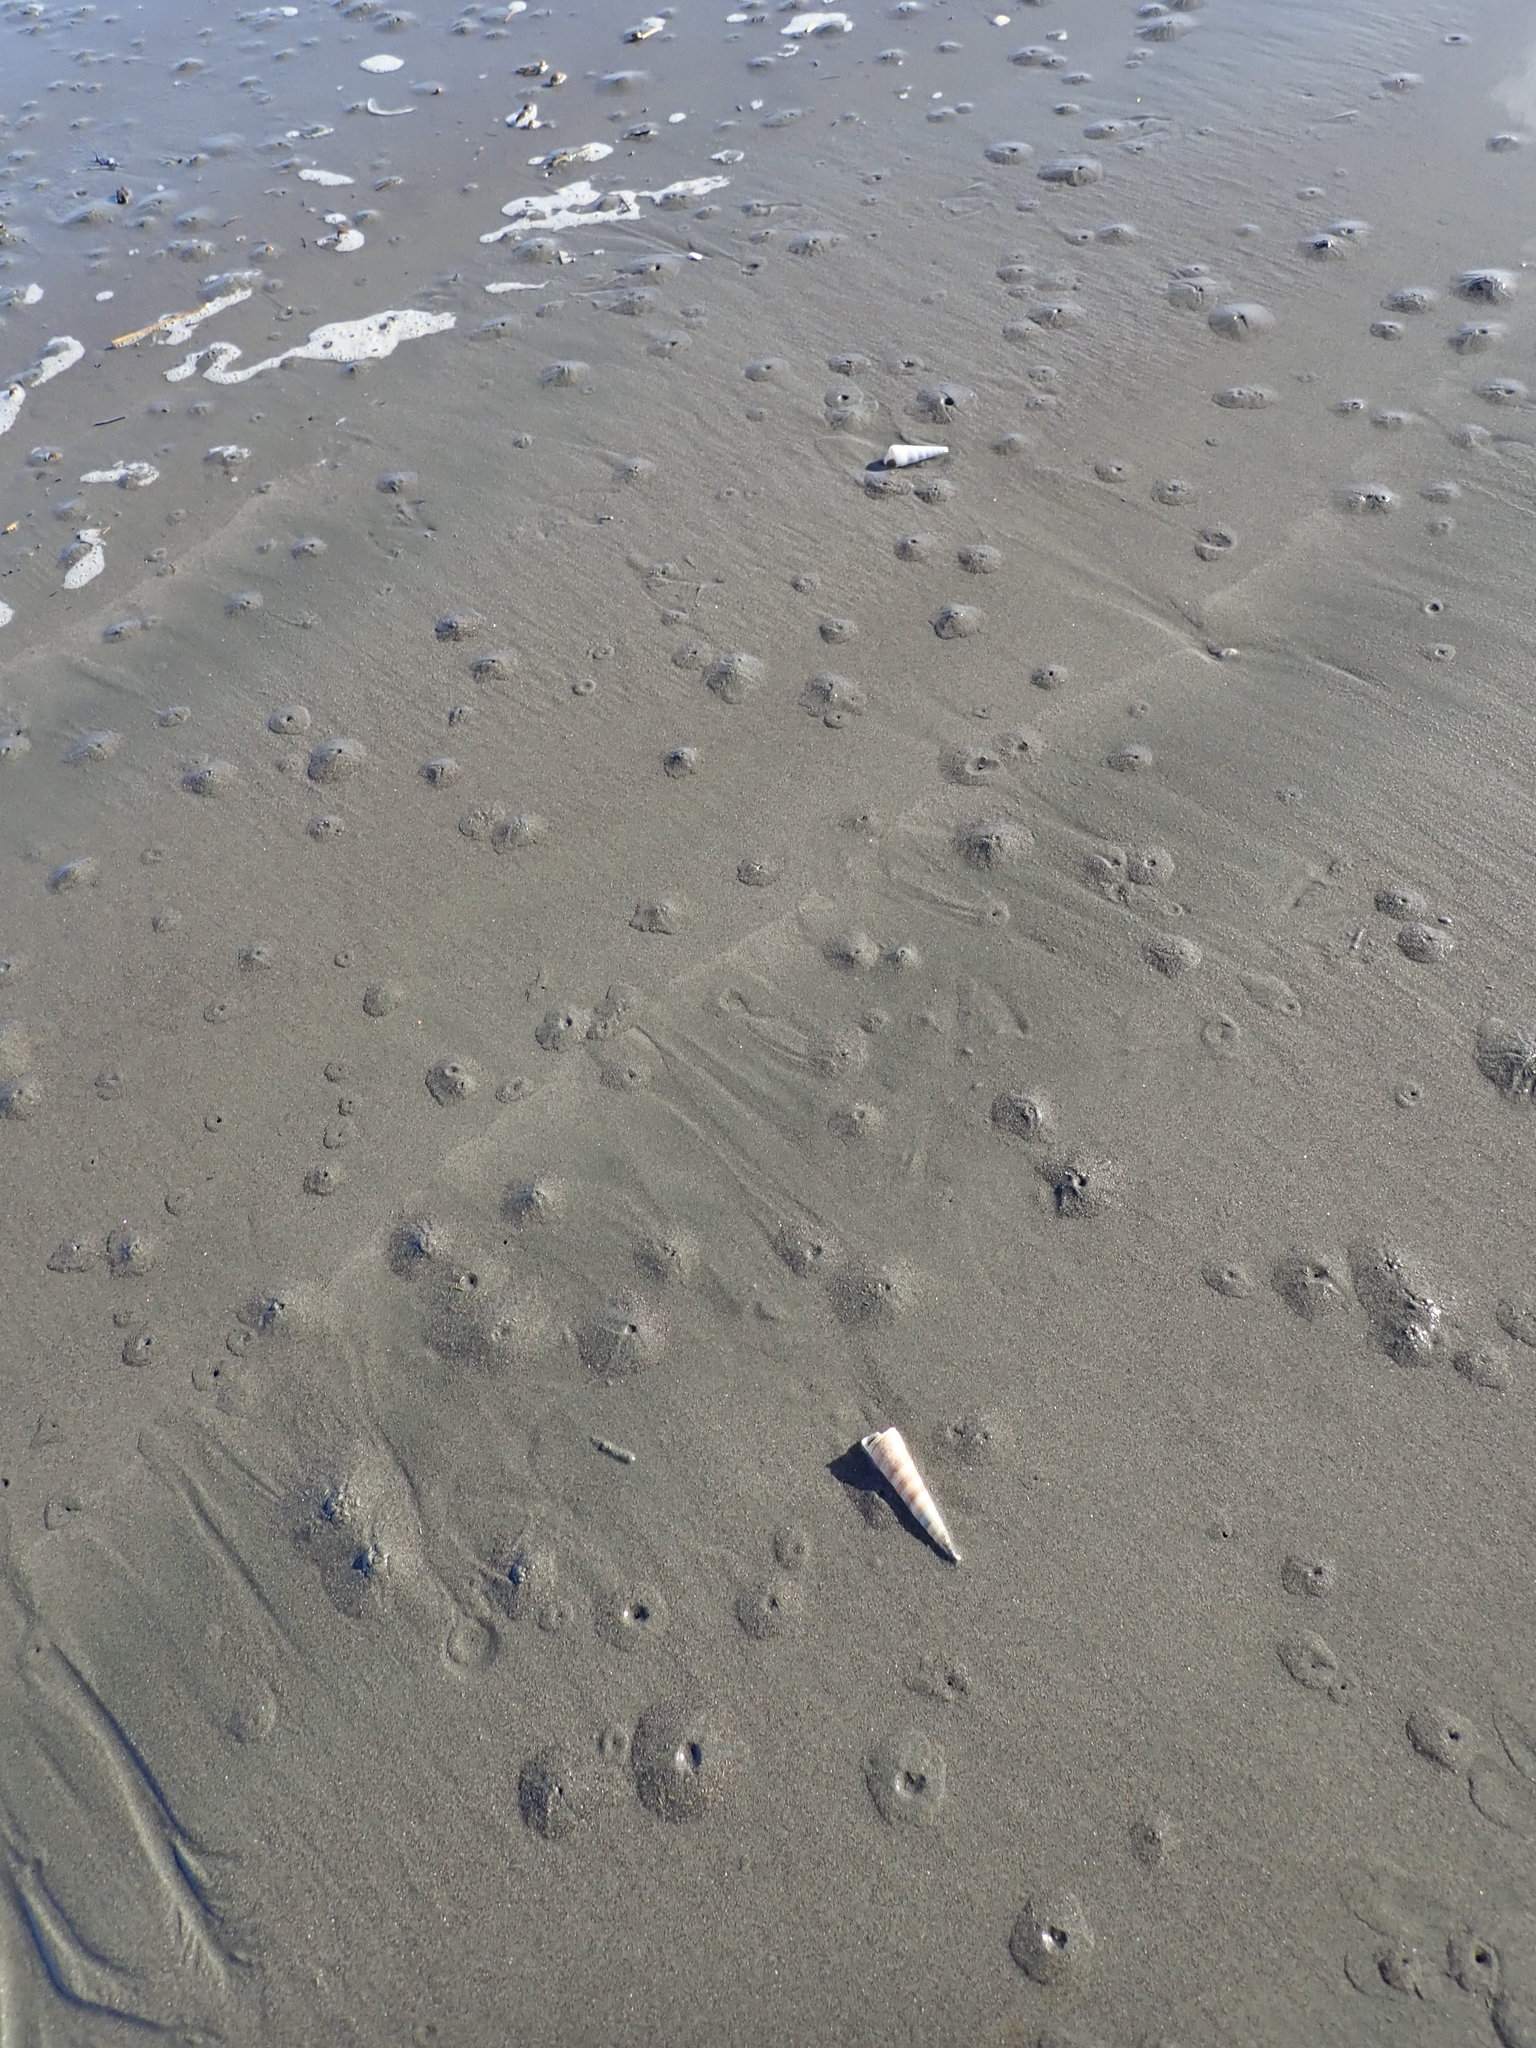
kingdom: Animalia
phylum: Mollusca
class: Gastropoda
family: Turritellidae
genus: Zeacolpus
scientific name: Zeacolpus vittatus
